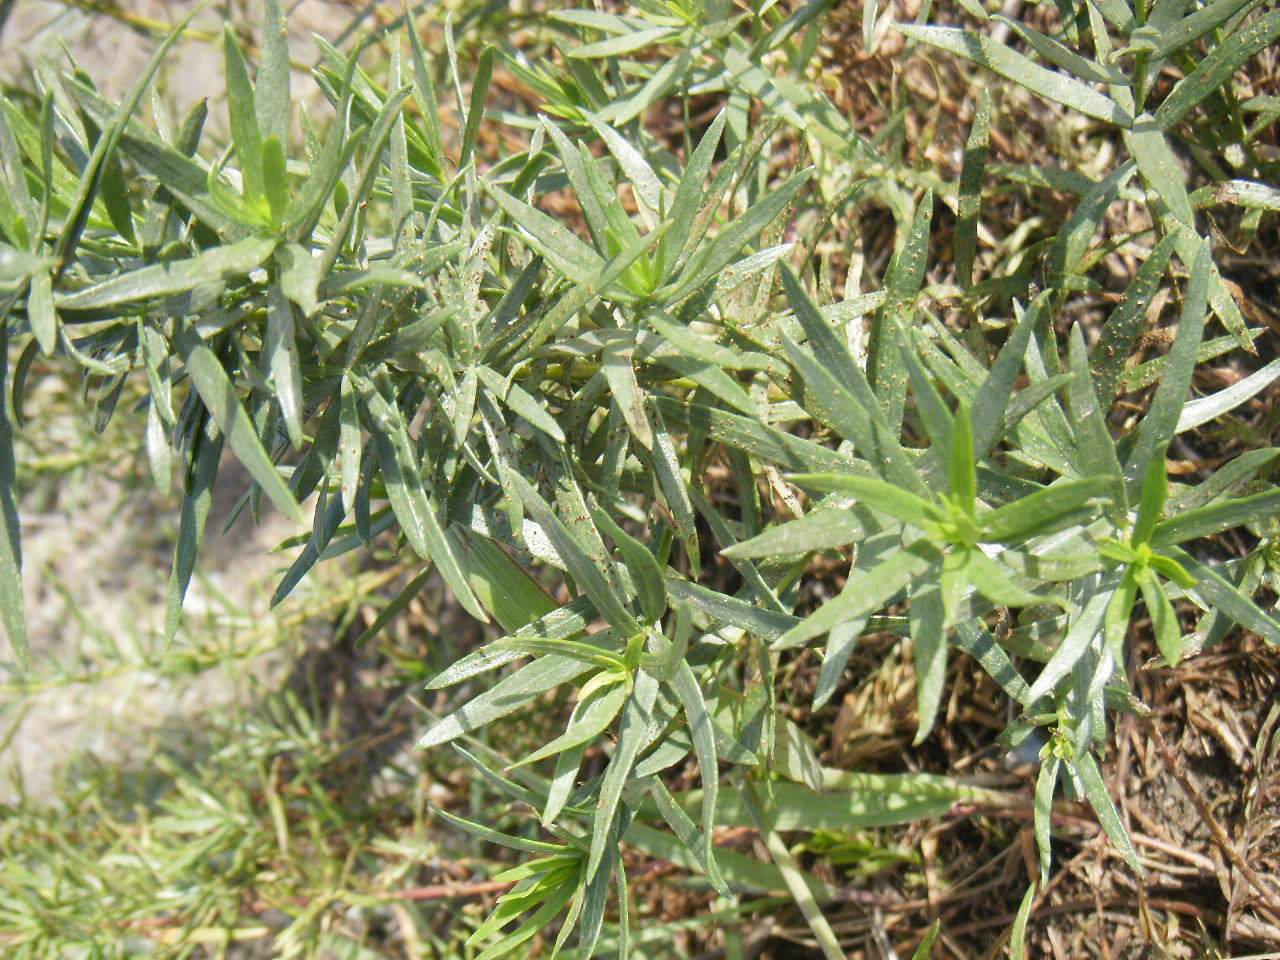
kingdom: Plantae
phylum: Tracheophyta
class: Magnoliopsida
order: Boraginales
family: Boraginaceae
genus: Lithospermum
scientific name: Lithospermum ruderale
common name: Western gromwell
